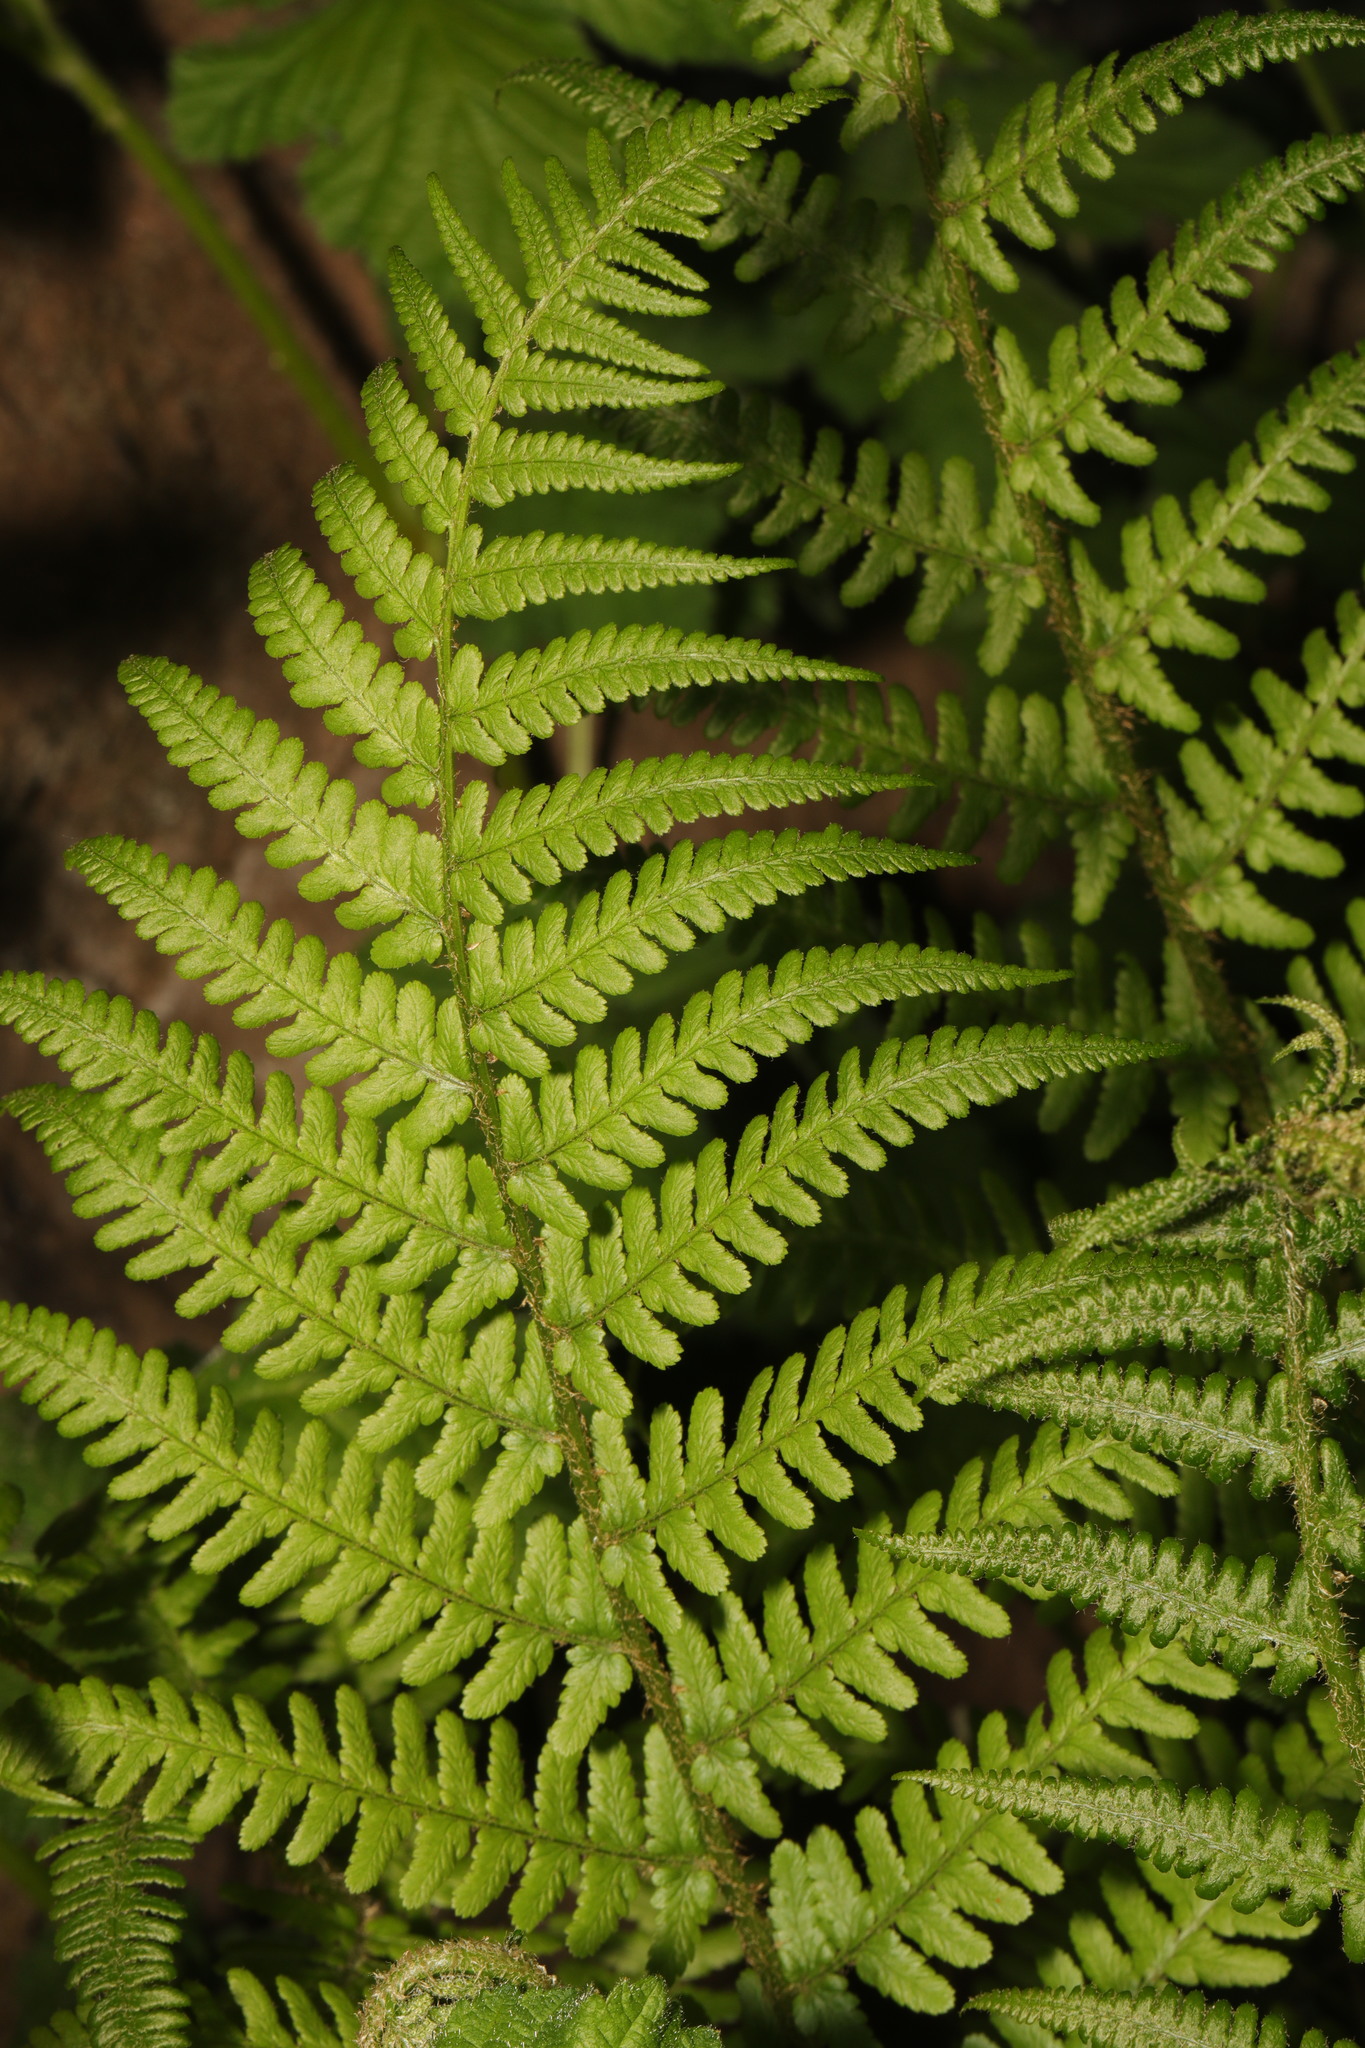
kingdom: Plantae
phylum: Tracheophyta
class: Polypodiopsida
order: Polypodiales
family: Dryopteridaceae
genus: Dryopteris
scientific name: Dryopteris filix-mas
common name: Male fern
